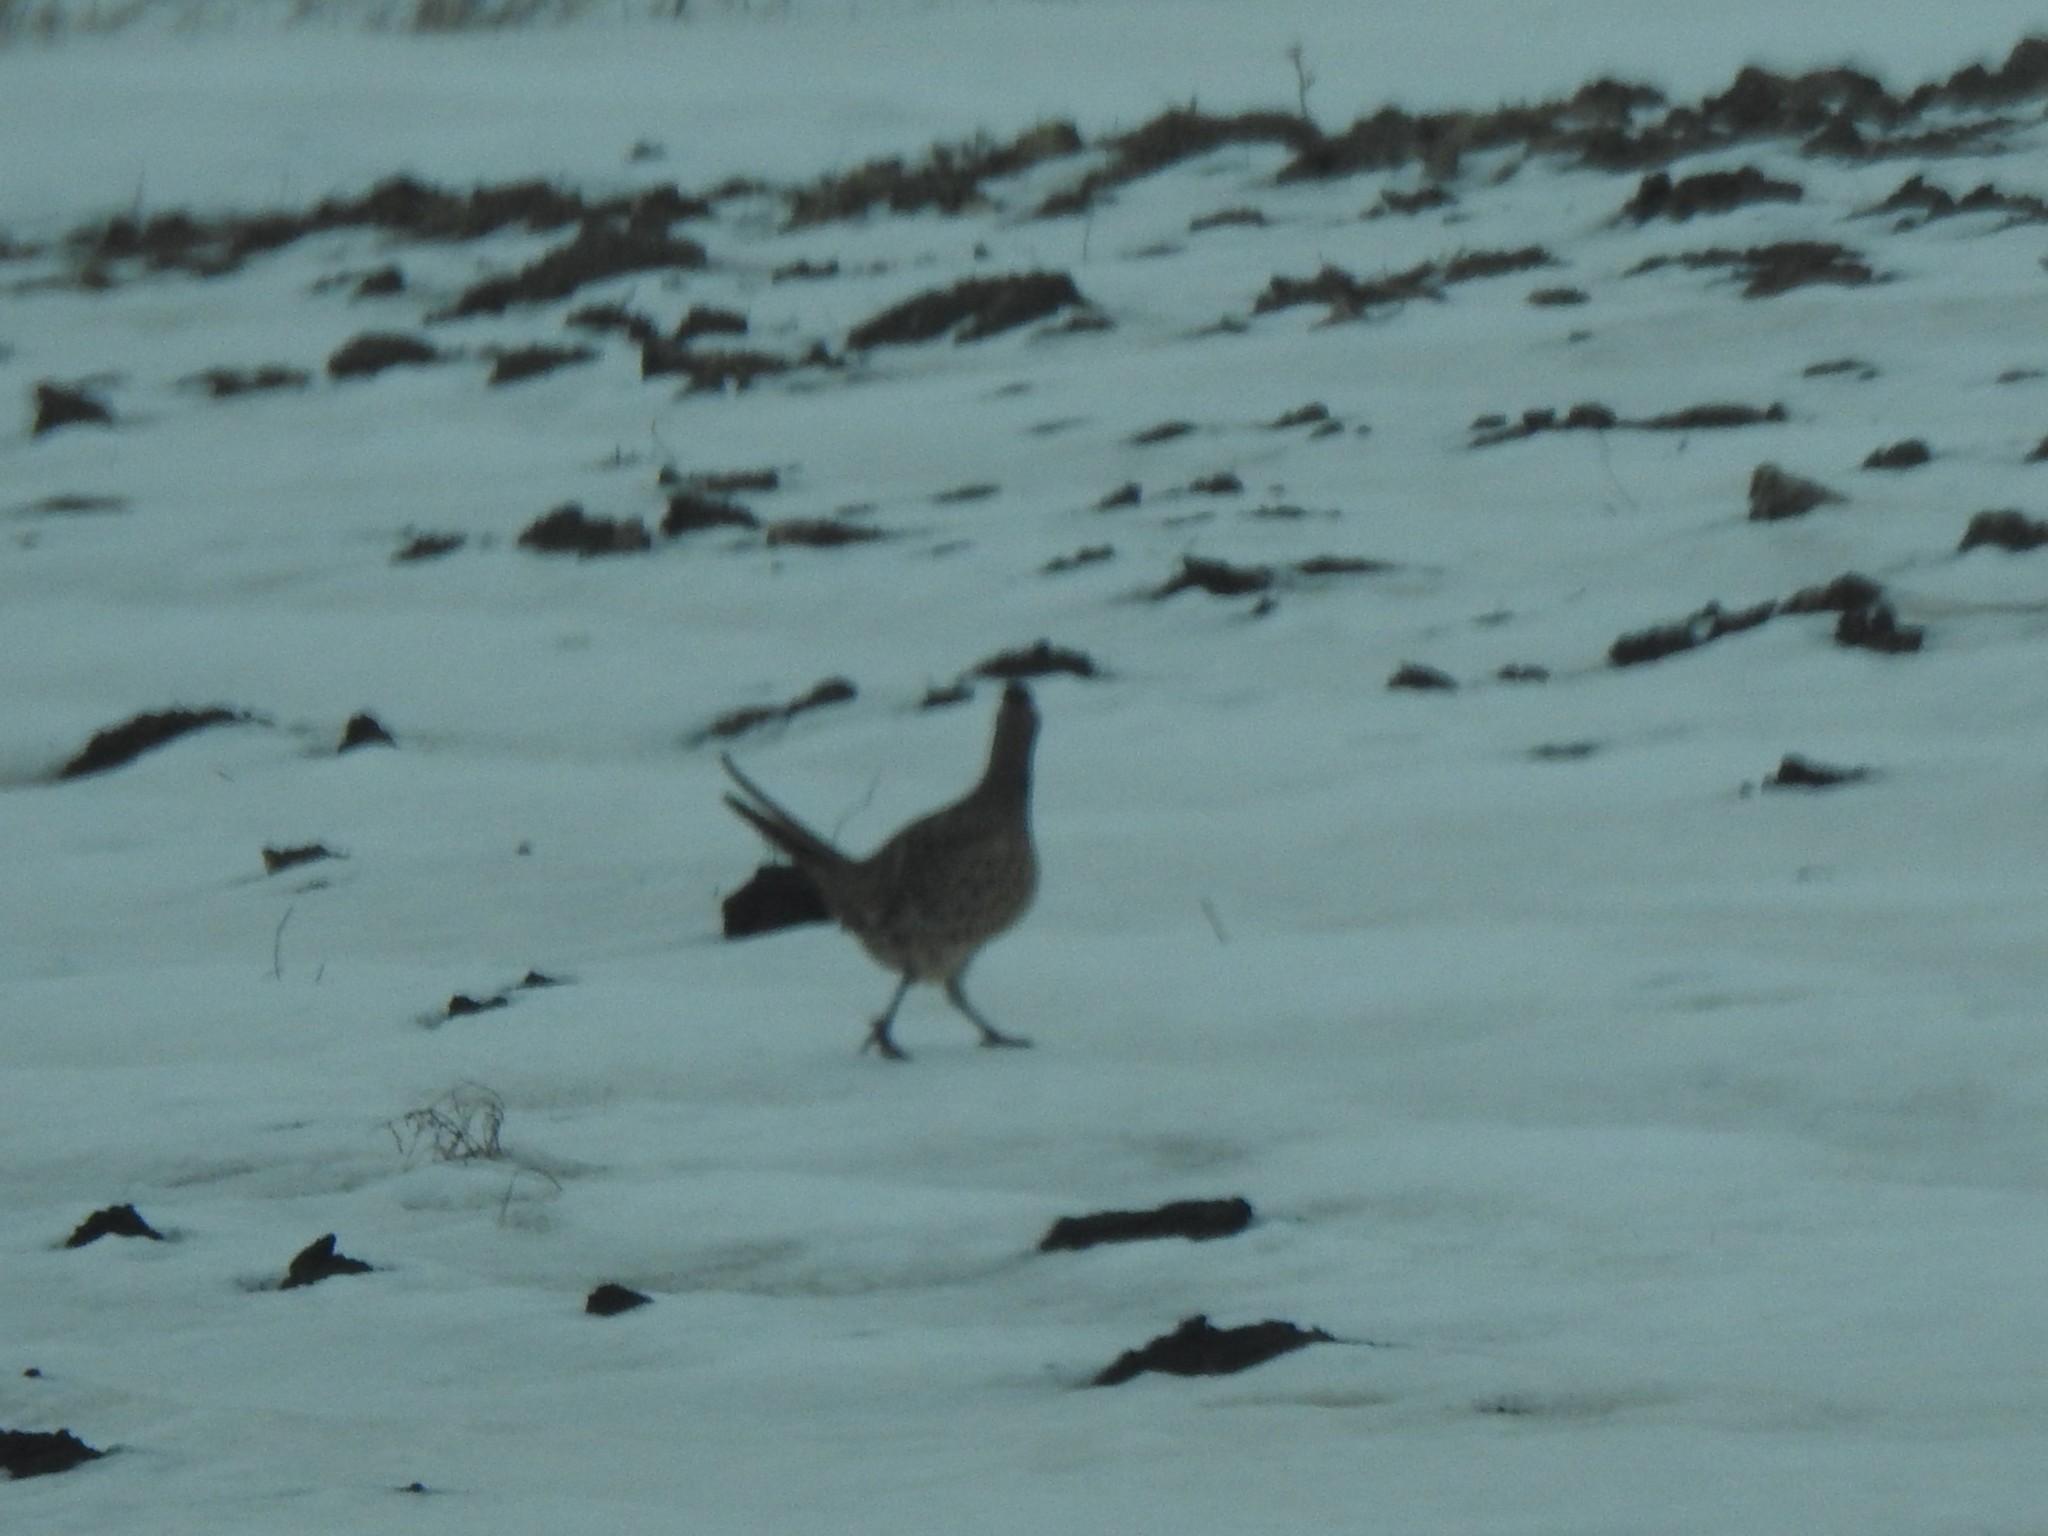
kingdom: Animalia
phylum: Chordata
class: Aves
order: Galliformes
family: Phasianidae
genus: Phasianus
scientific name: Phasianus colchicus
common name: Common pheasant
